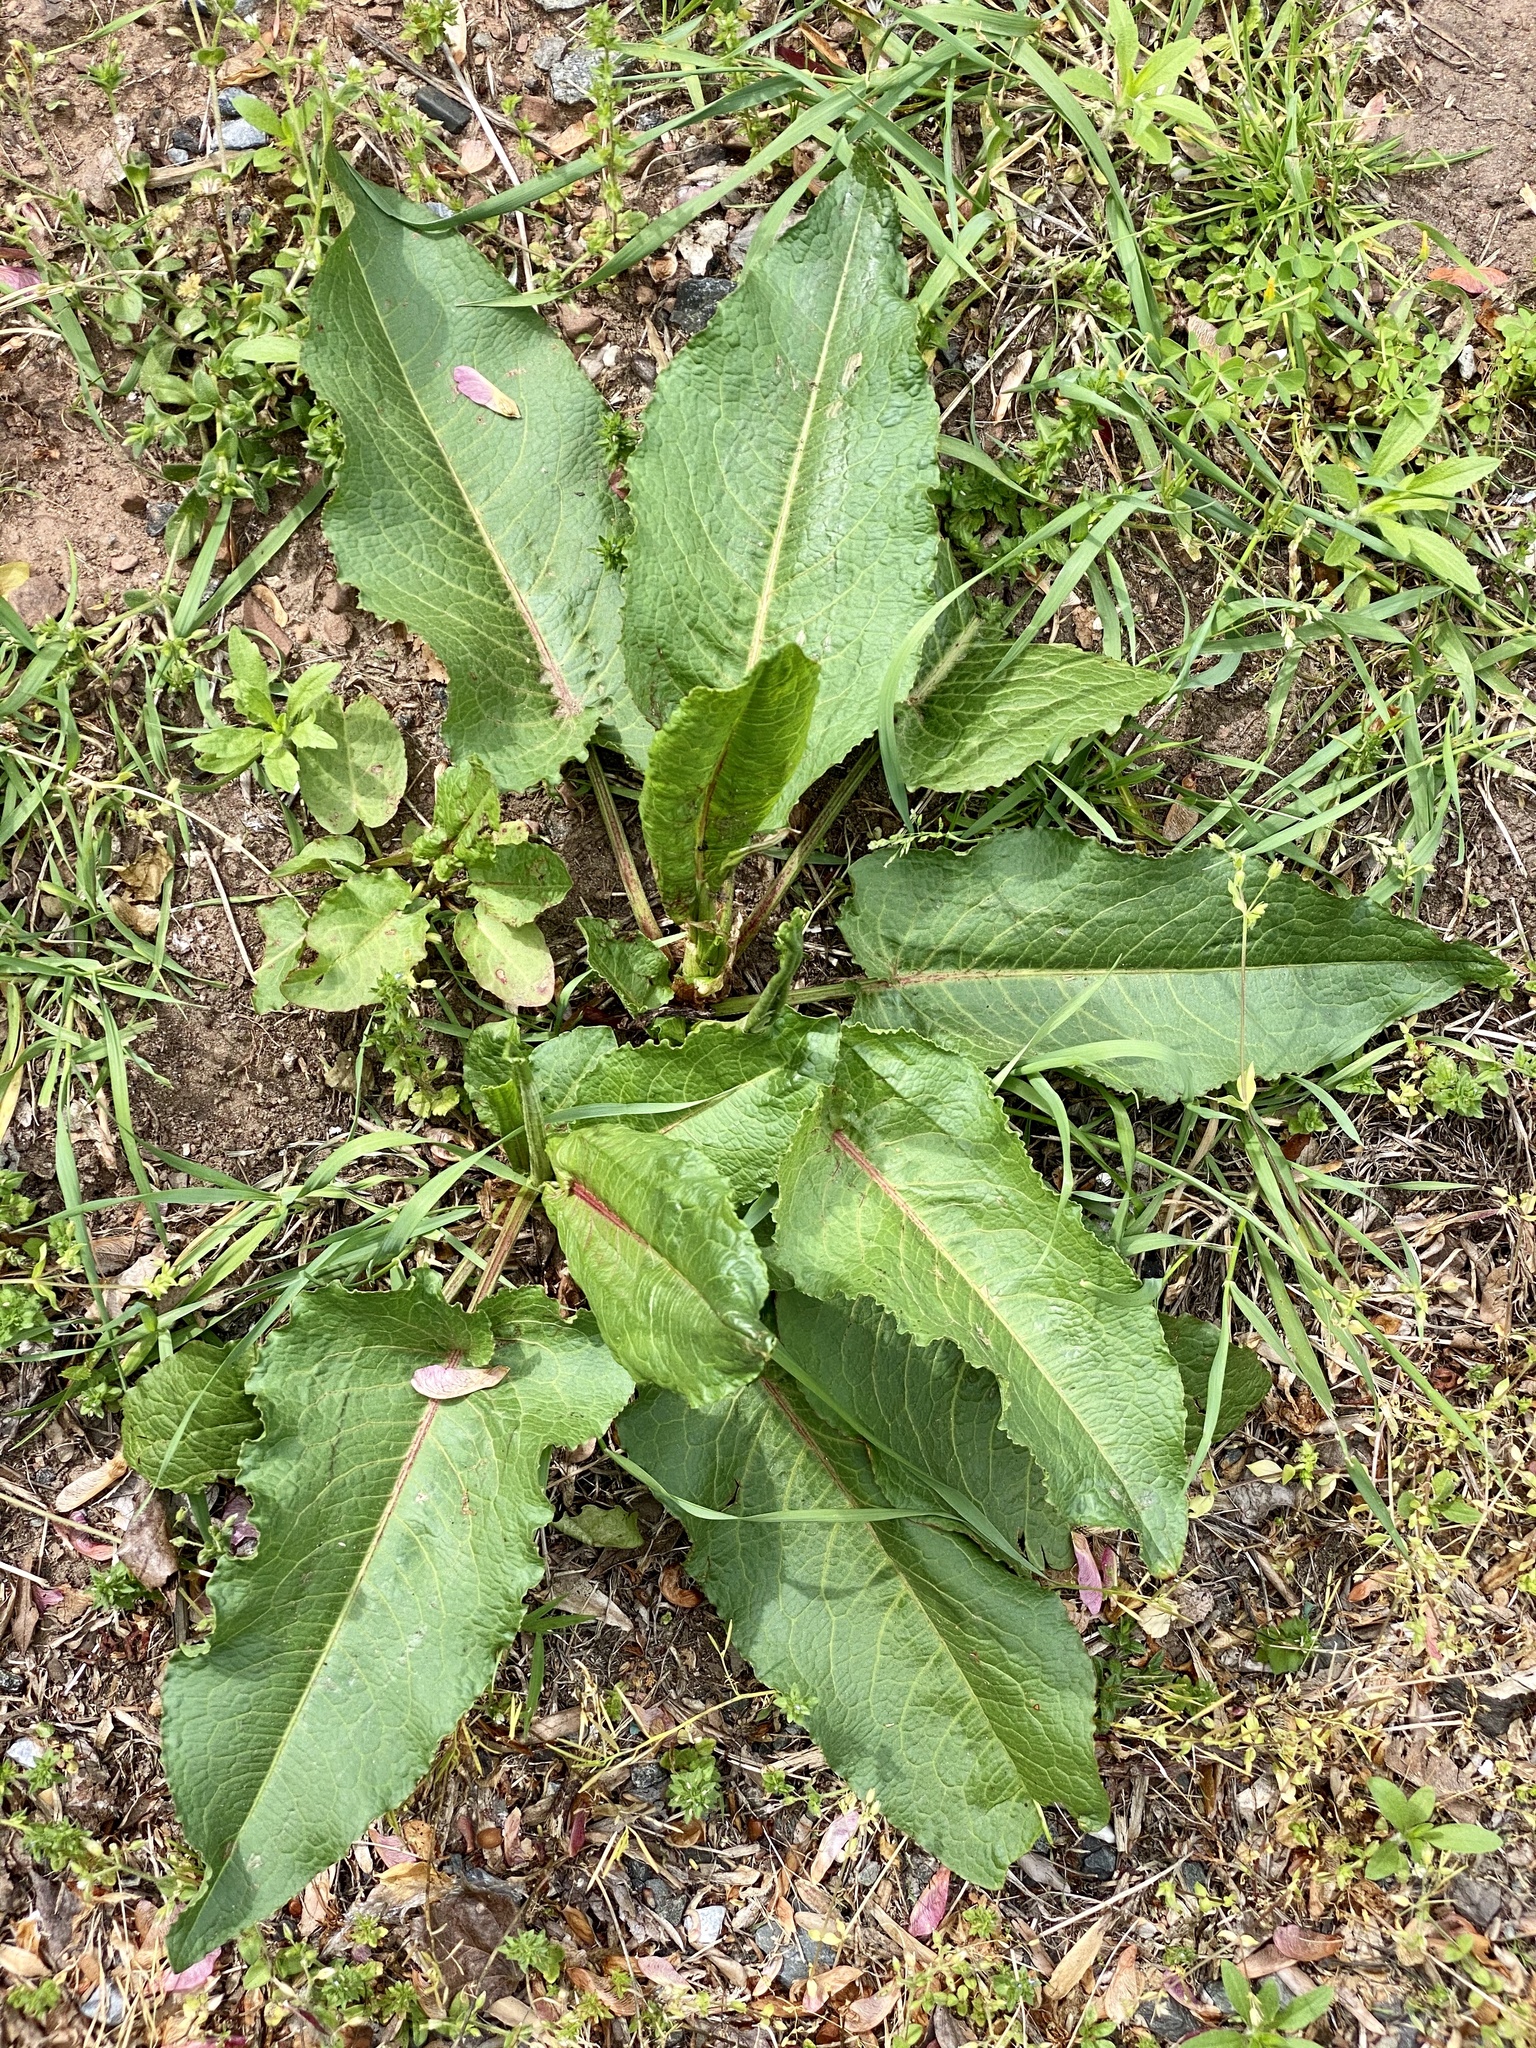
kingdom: Plantae
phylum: Tracheophyta
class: Magnoliopsida
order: Caryophyllales
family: Polygonaceae
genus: Rumex
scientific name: Rumex obtusifolius
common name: Bitter dock
